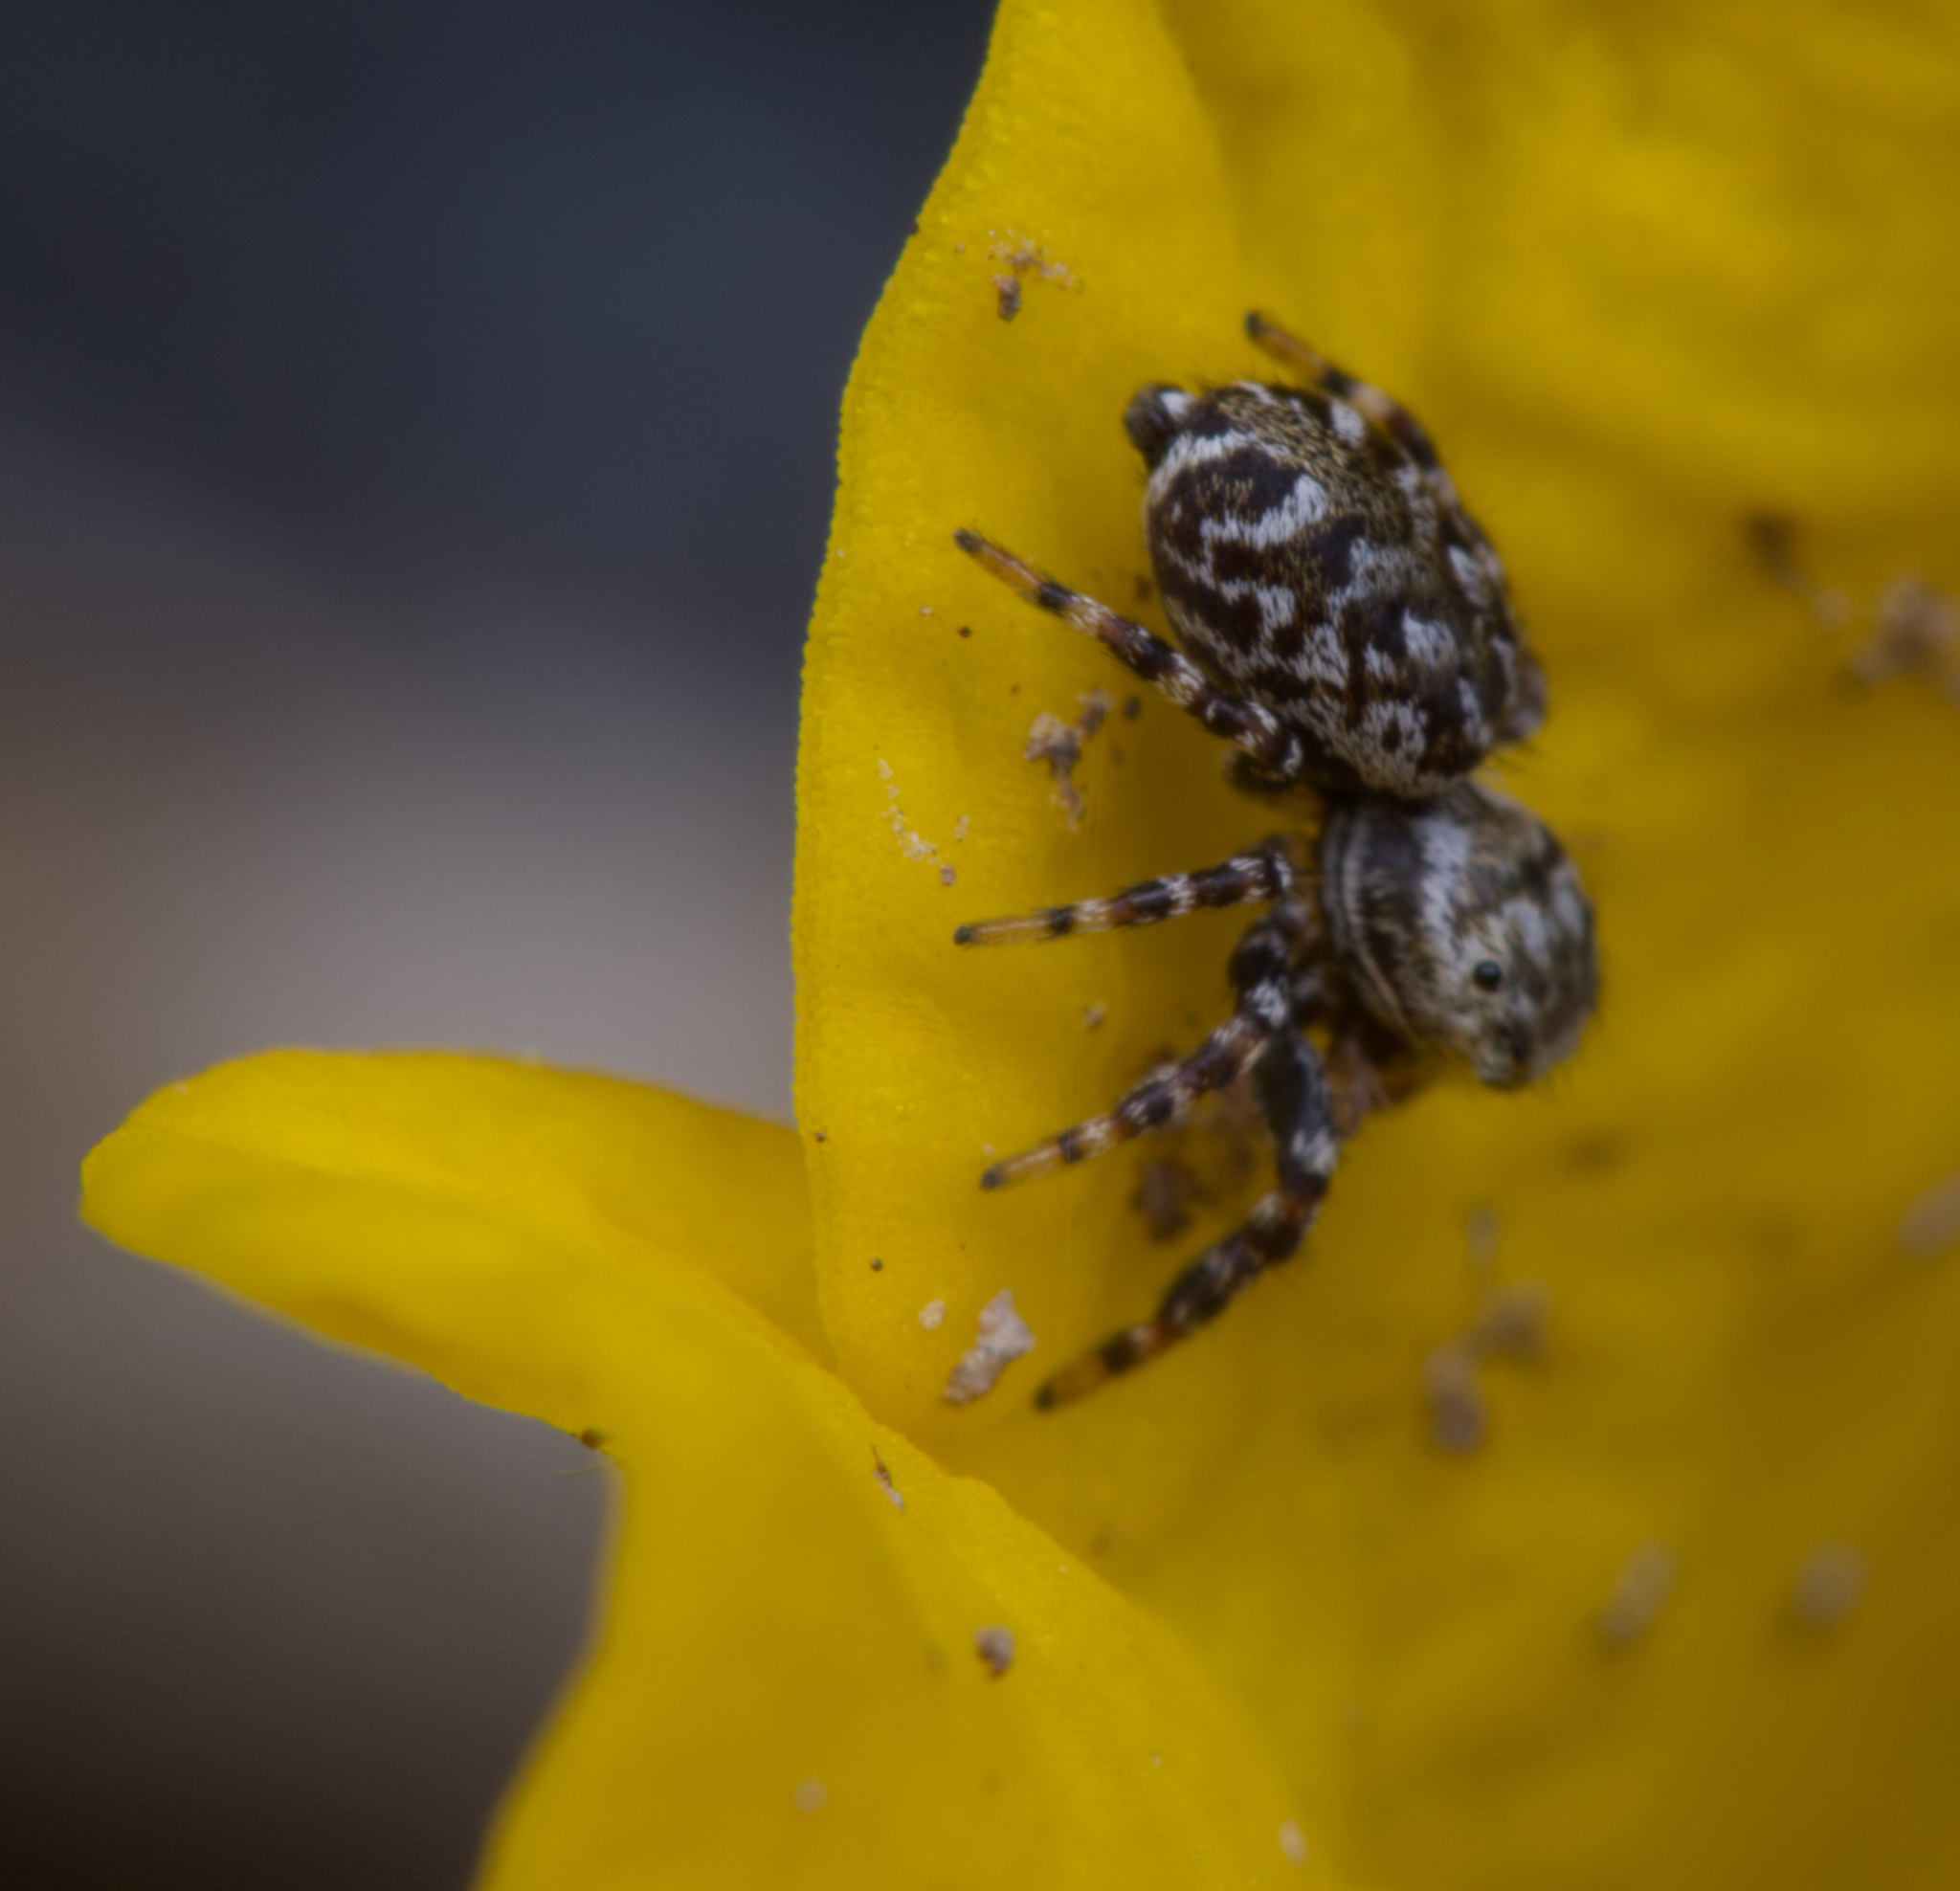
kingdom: Animalia
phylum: Arthropoda
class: Arachnida
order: Araneae
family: Salticidae
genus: Pelegrina
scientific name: Pelegrina galathea
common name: Jumping spiders
